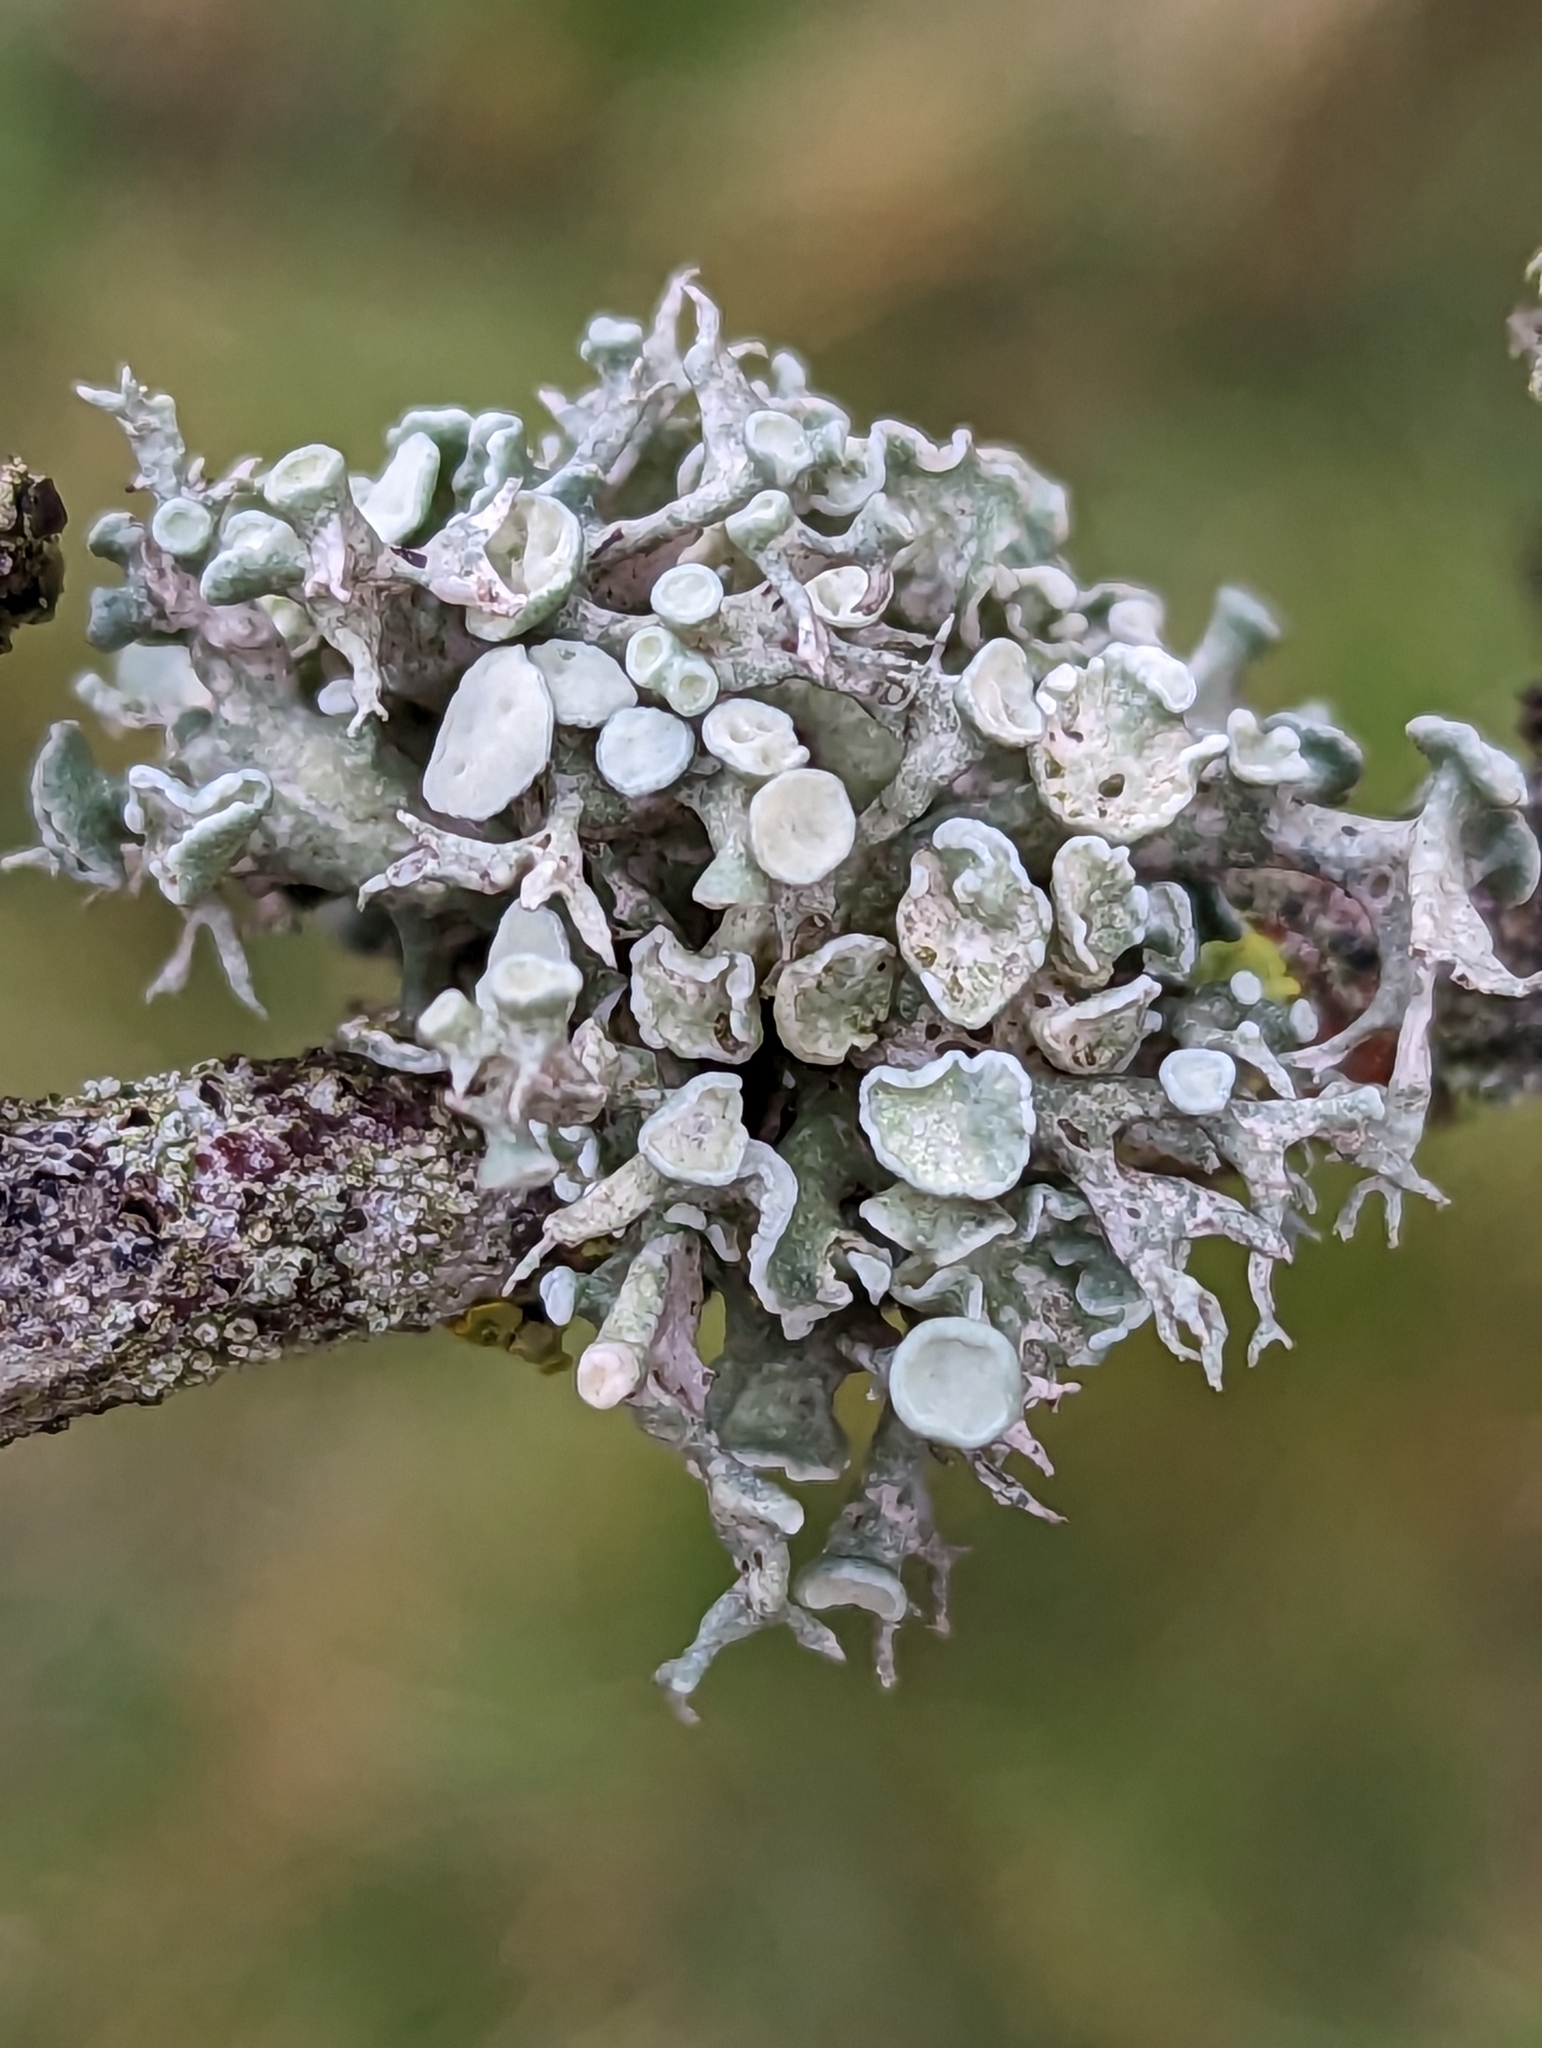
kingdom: Fungi
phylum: Ascomycota
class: Lecanoromycetes
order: Lecanorales
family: Ramalinaceae
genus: Ramalina
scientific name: Ramalina fastigiata
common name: Dotted ribbon lichen
